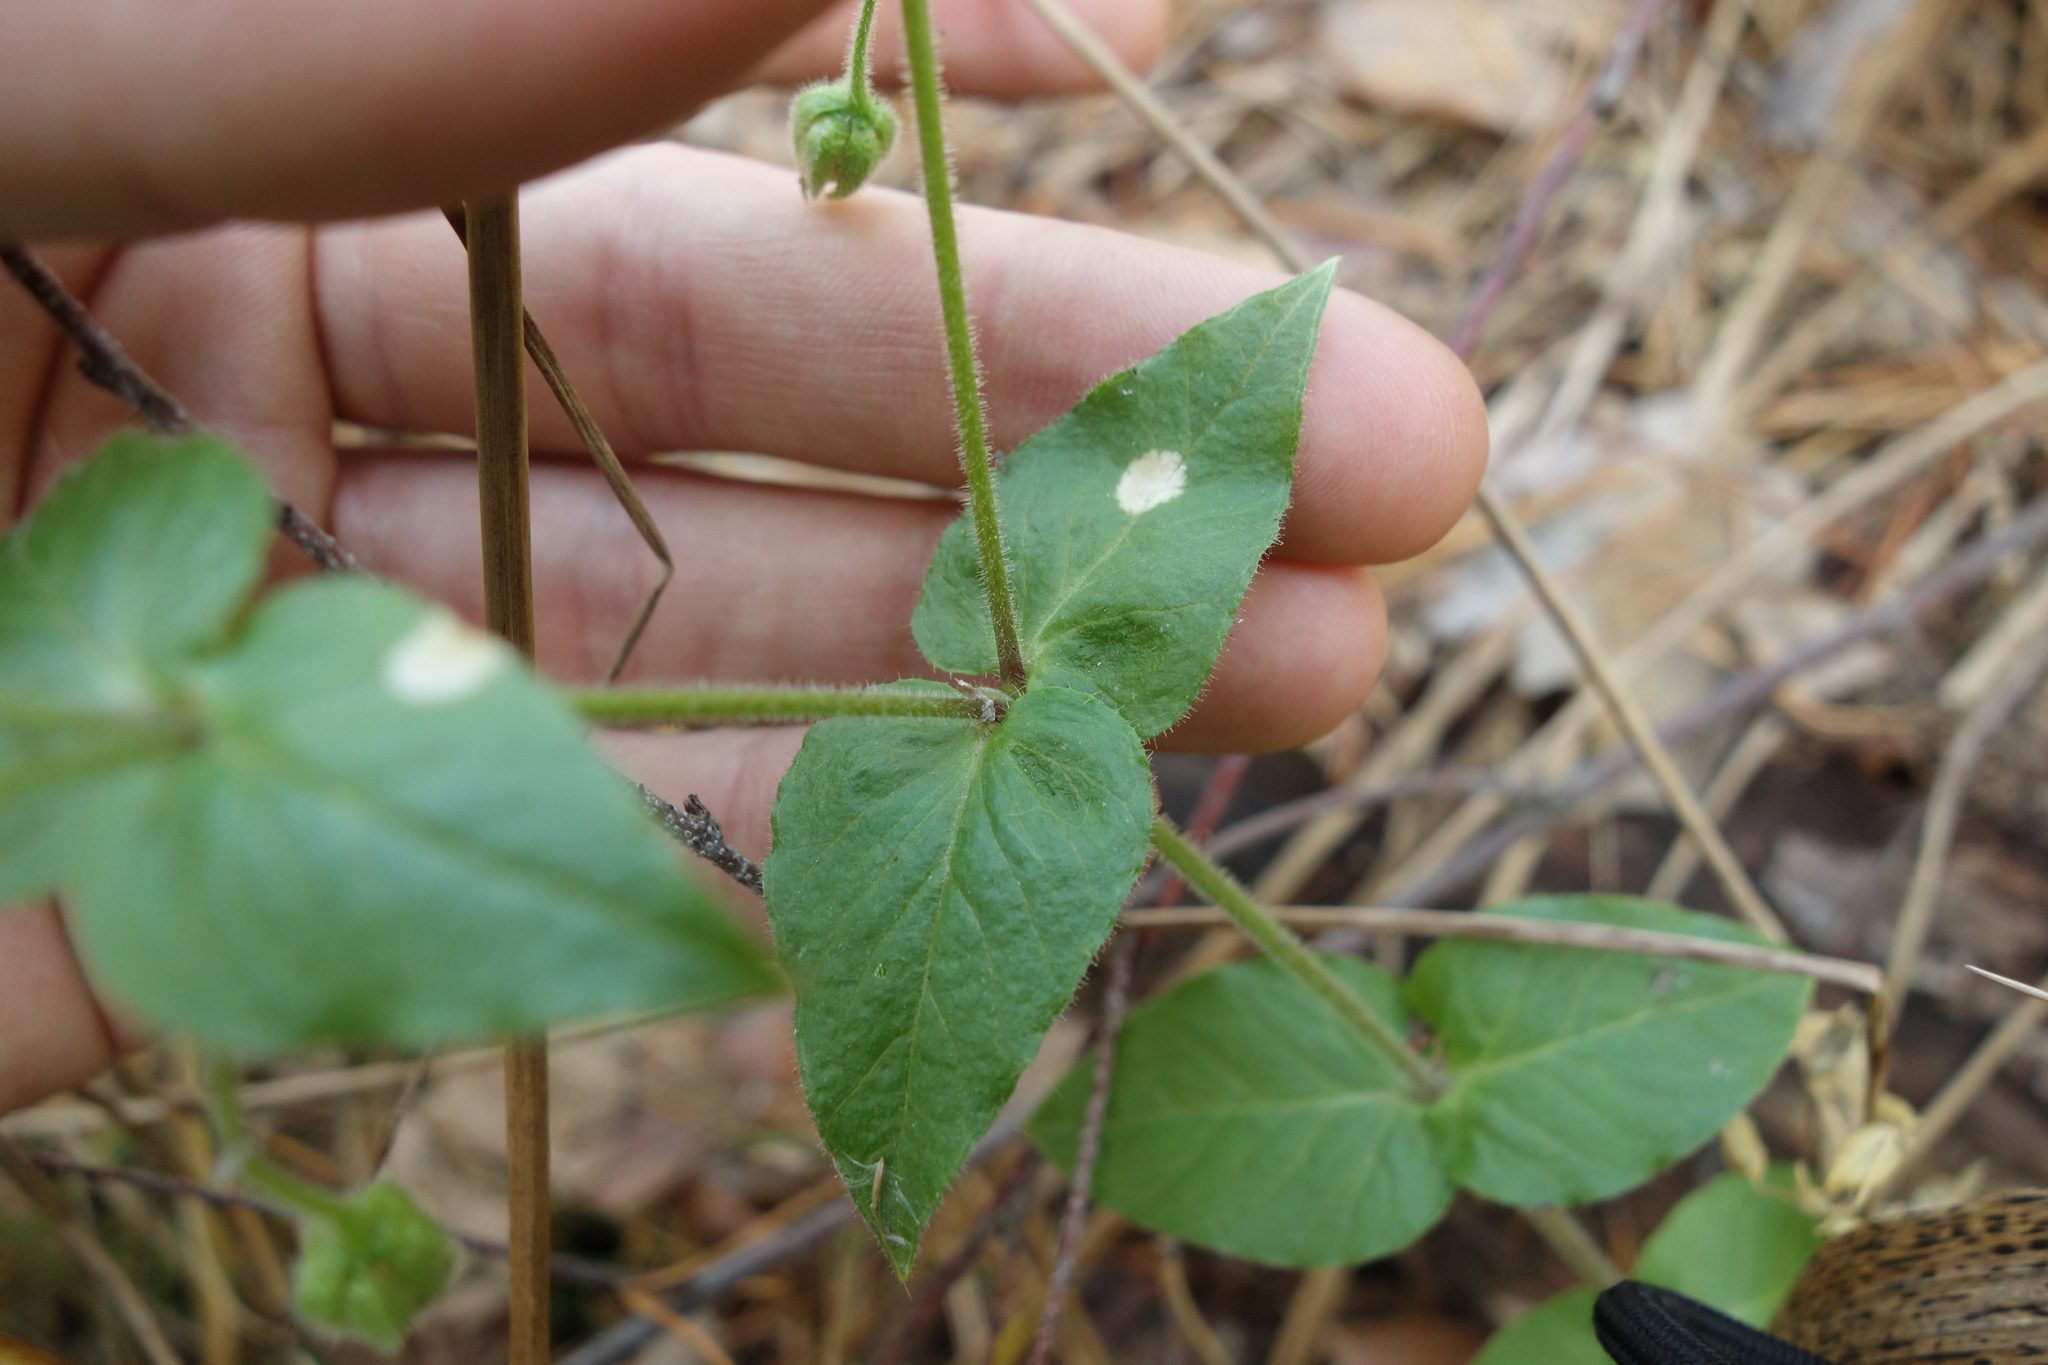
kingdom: Plantae
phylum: Tracheophyta
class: Magnoliopsida
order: Caryophyllales
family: Caryophyllaceae
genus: Stellaria
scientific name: Stellaria aquatica
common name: Water chickweed
